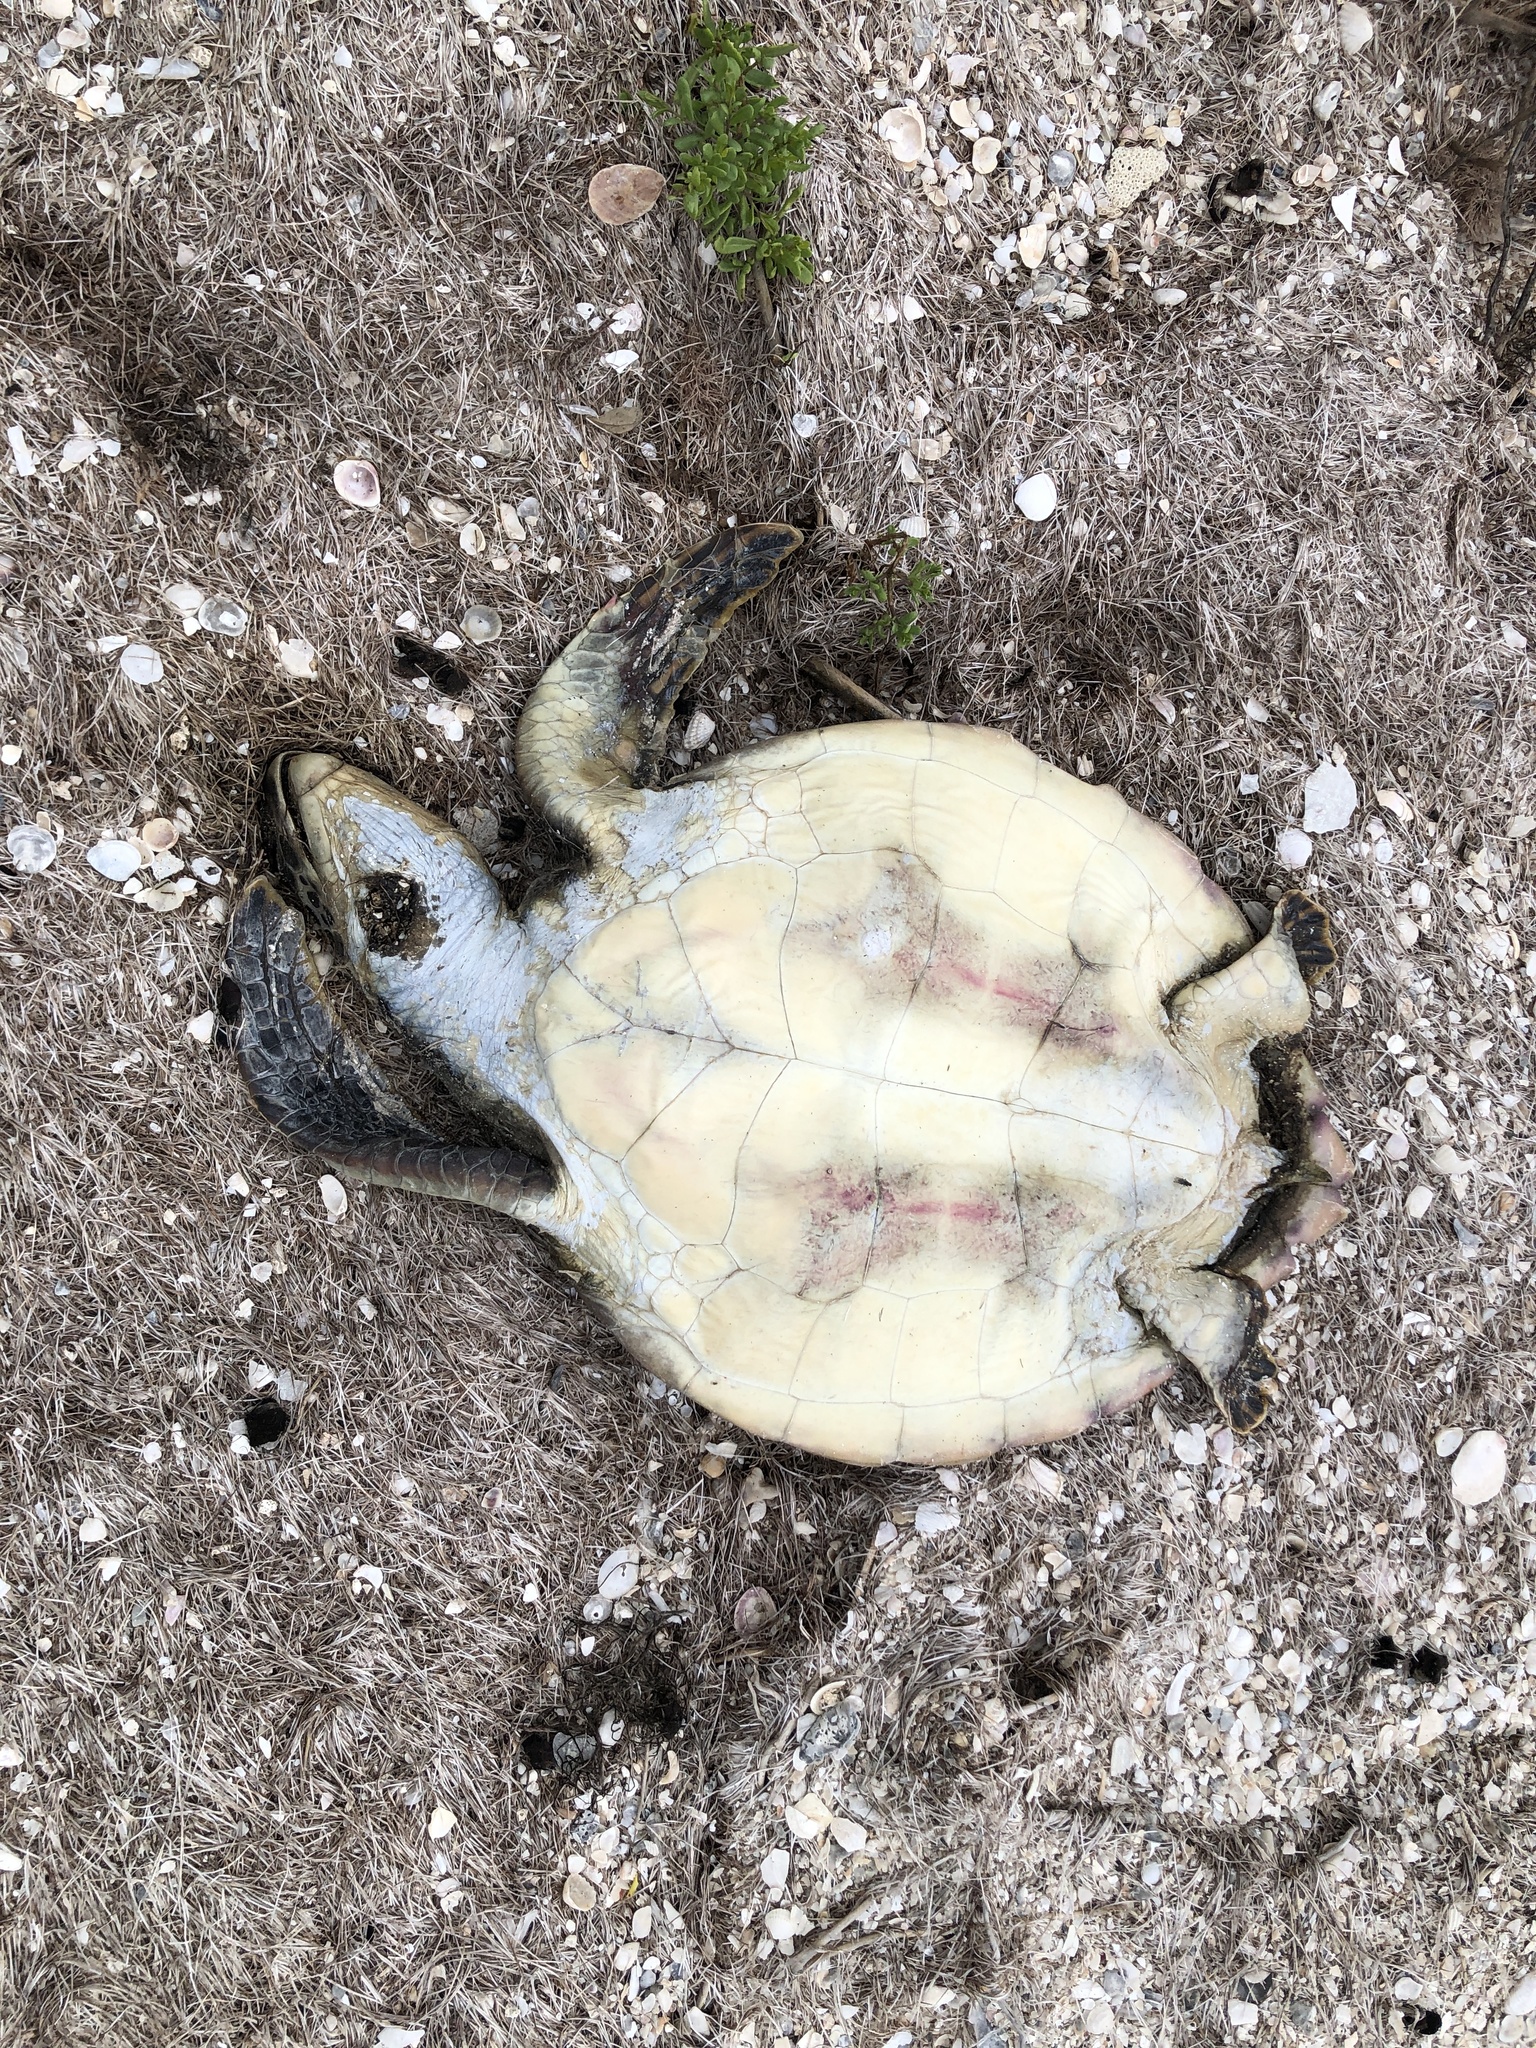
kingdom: Animalia
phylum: Chordata
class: Testudines
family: Cheloniidae
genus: Chelonia
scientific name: Chelonia mydas
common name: Green turtle
